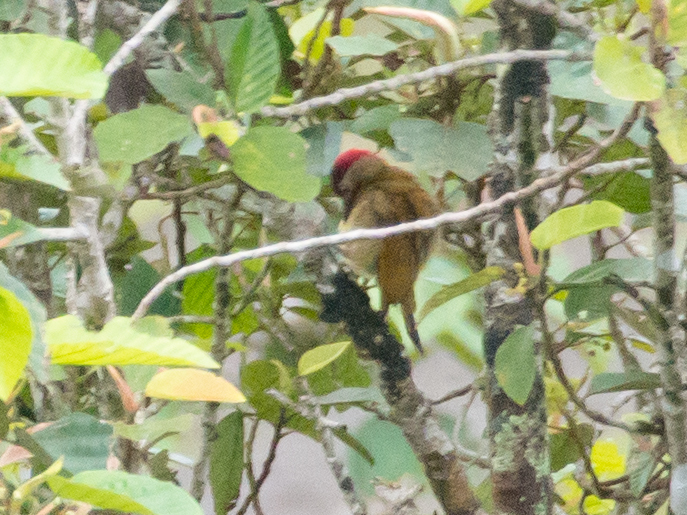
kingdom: Animalia
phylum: Chordata
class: Aves
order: Piciformes
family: Picidae
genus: Colaptes
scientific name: Colaptes rubiginosus
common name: Golden-olive woodpecker
